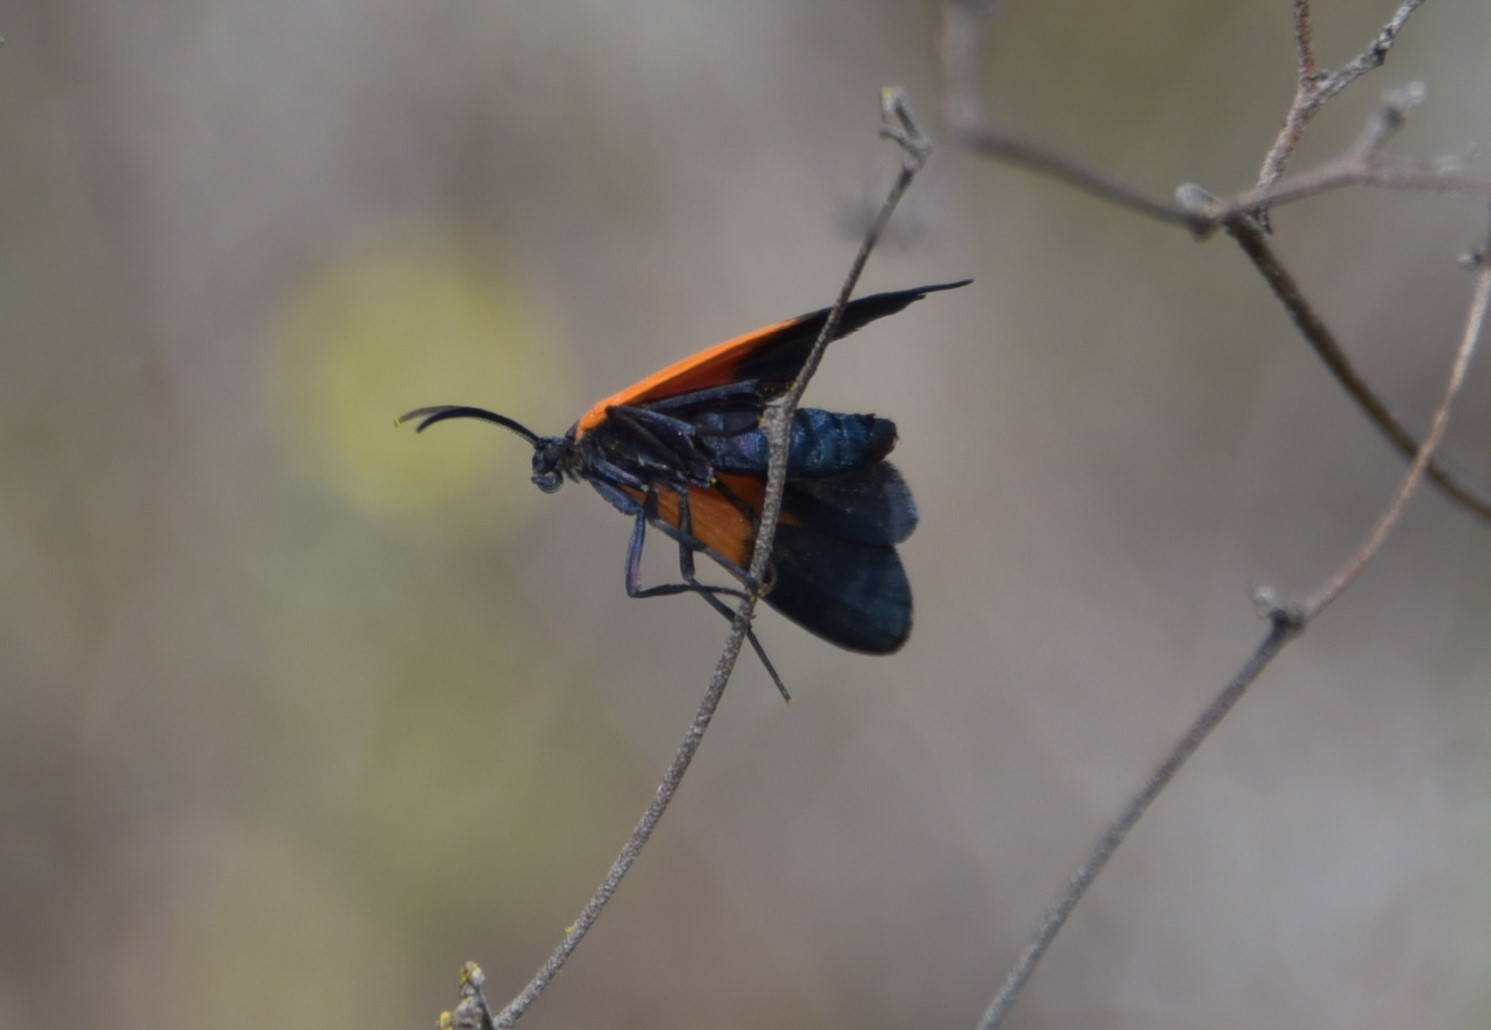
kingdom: Animalia
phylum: Arthropoda
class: Insecta
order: Lepidoptera
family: Erebidae
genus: Lycomorpha
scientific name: Lycomorpha pholus
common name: Black-and-yellow lichen moth
